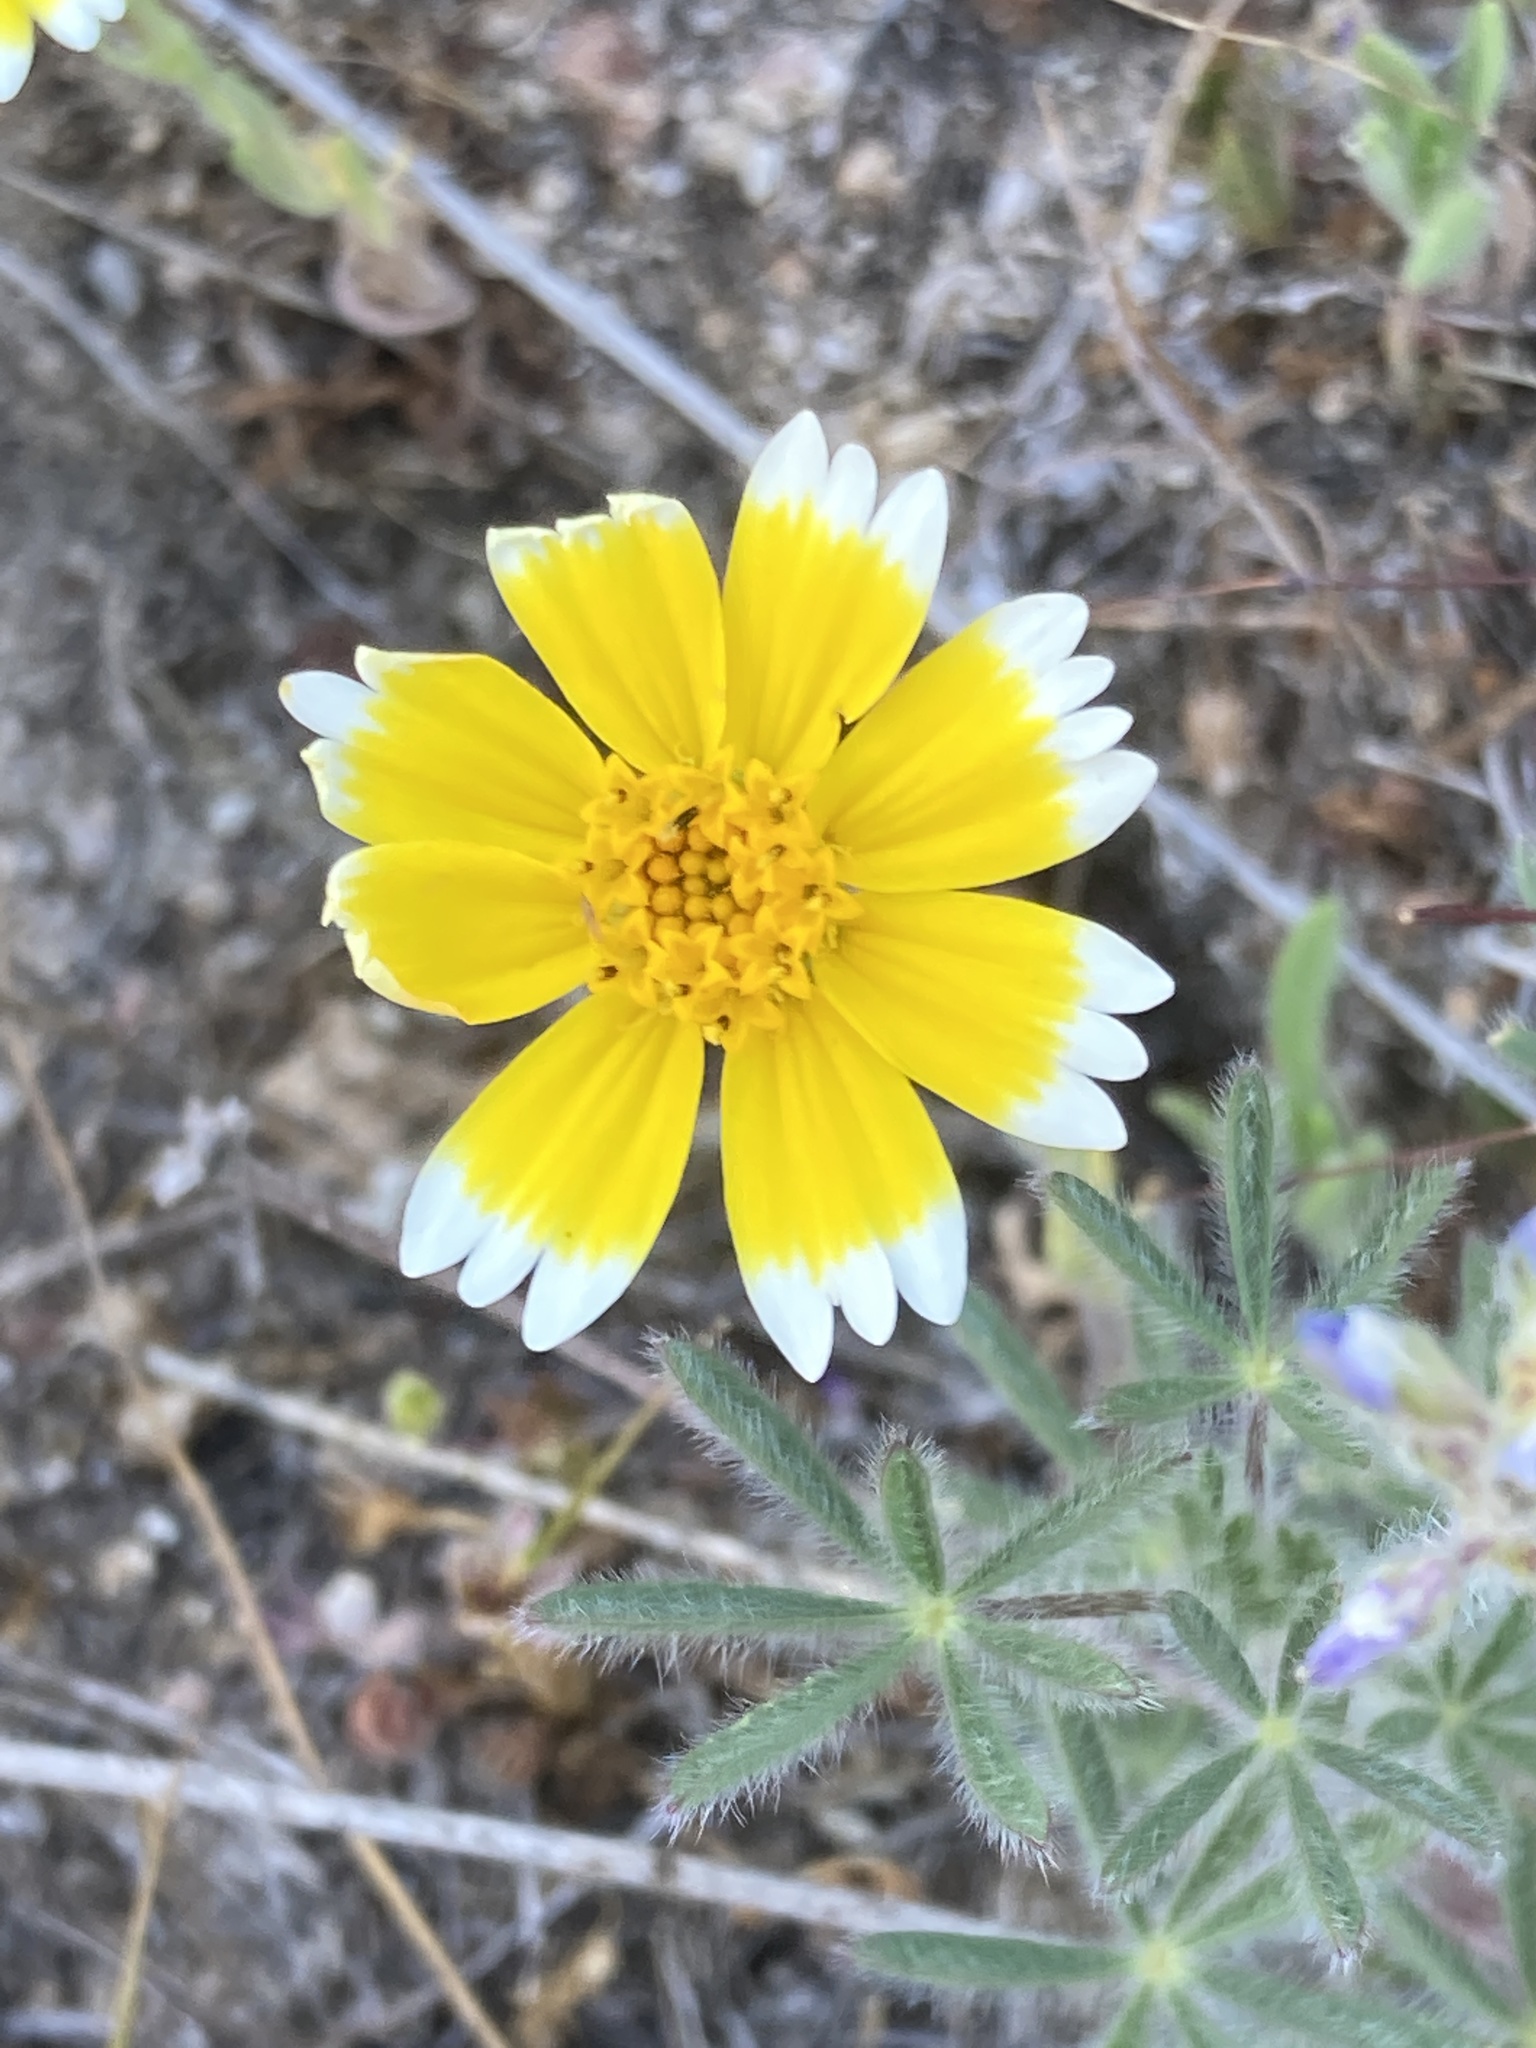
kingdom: Plantae
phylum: Tracheophyta
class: Magnoliopsida
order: Asterales
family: Asteraceae
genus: Layia
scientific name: Layia platyglossa
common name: Tidy-tips
